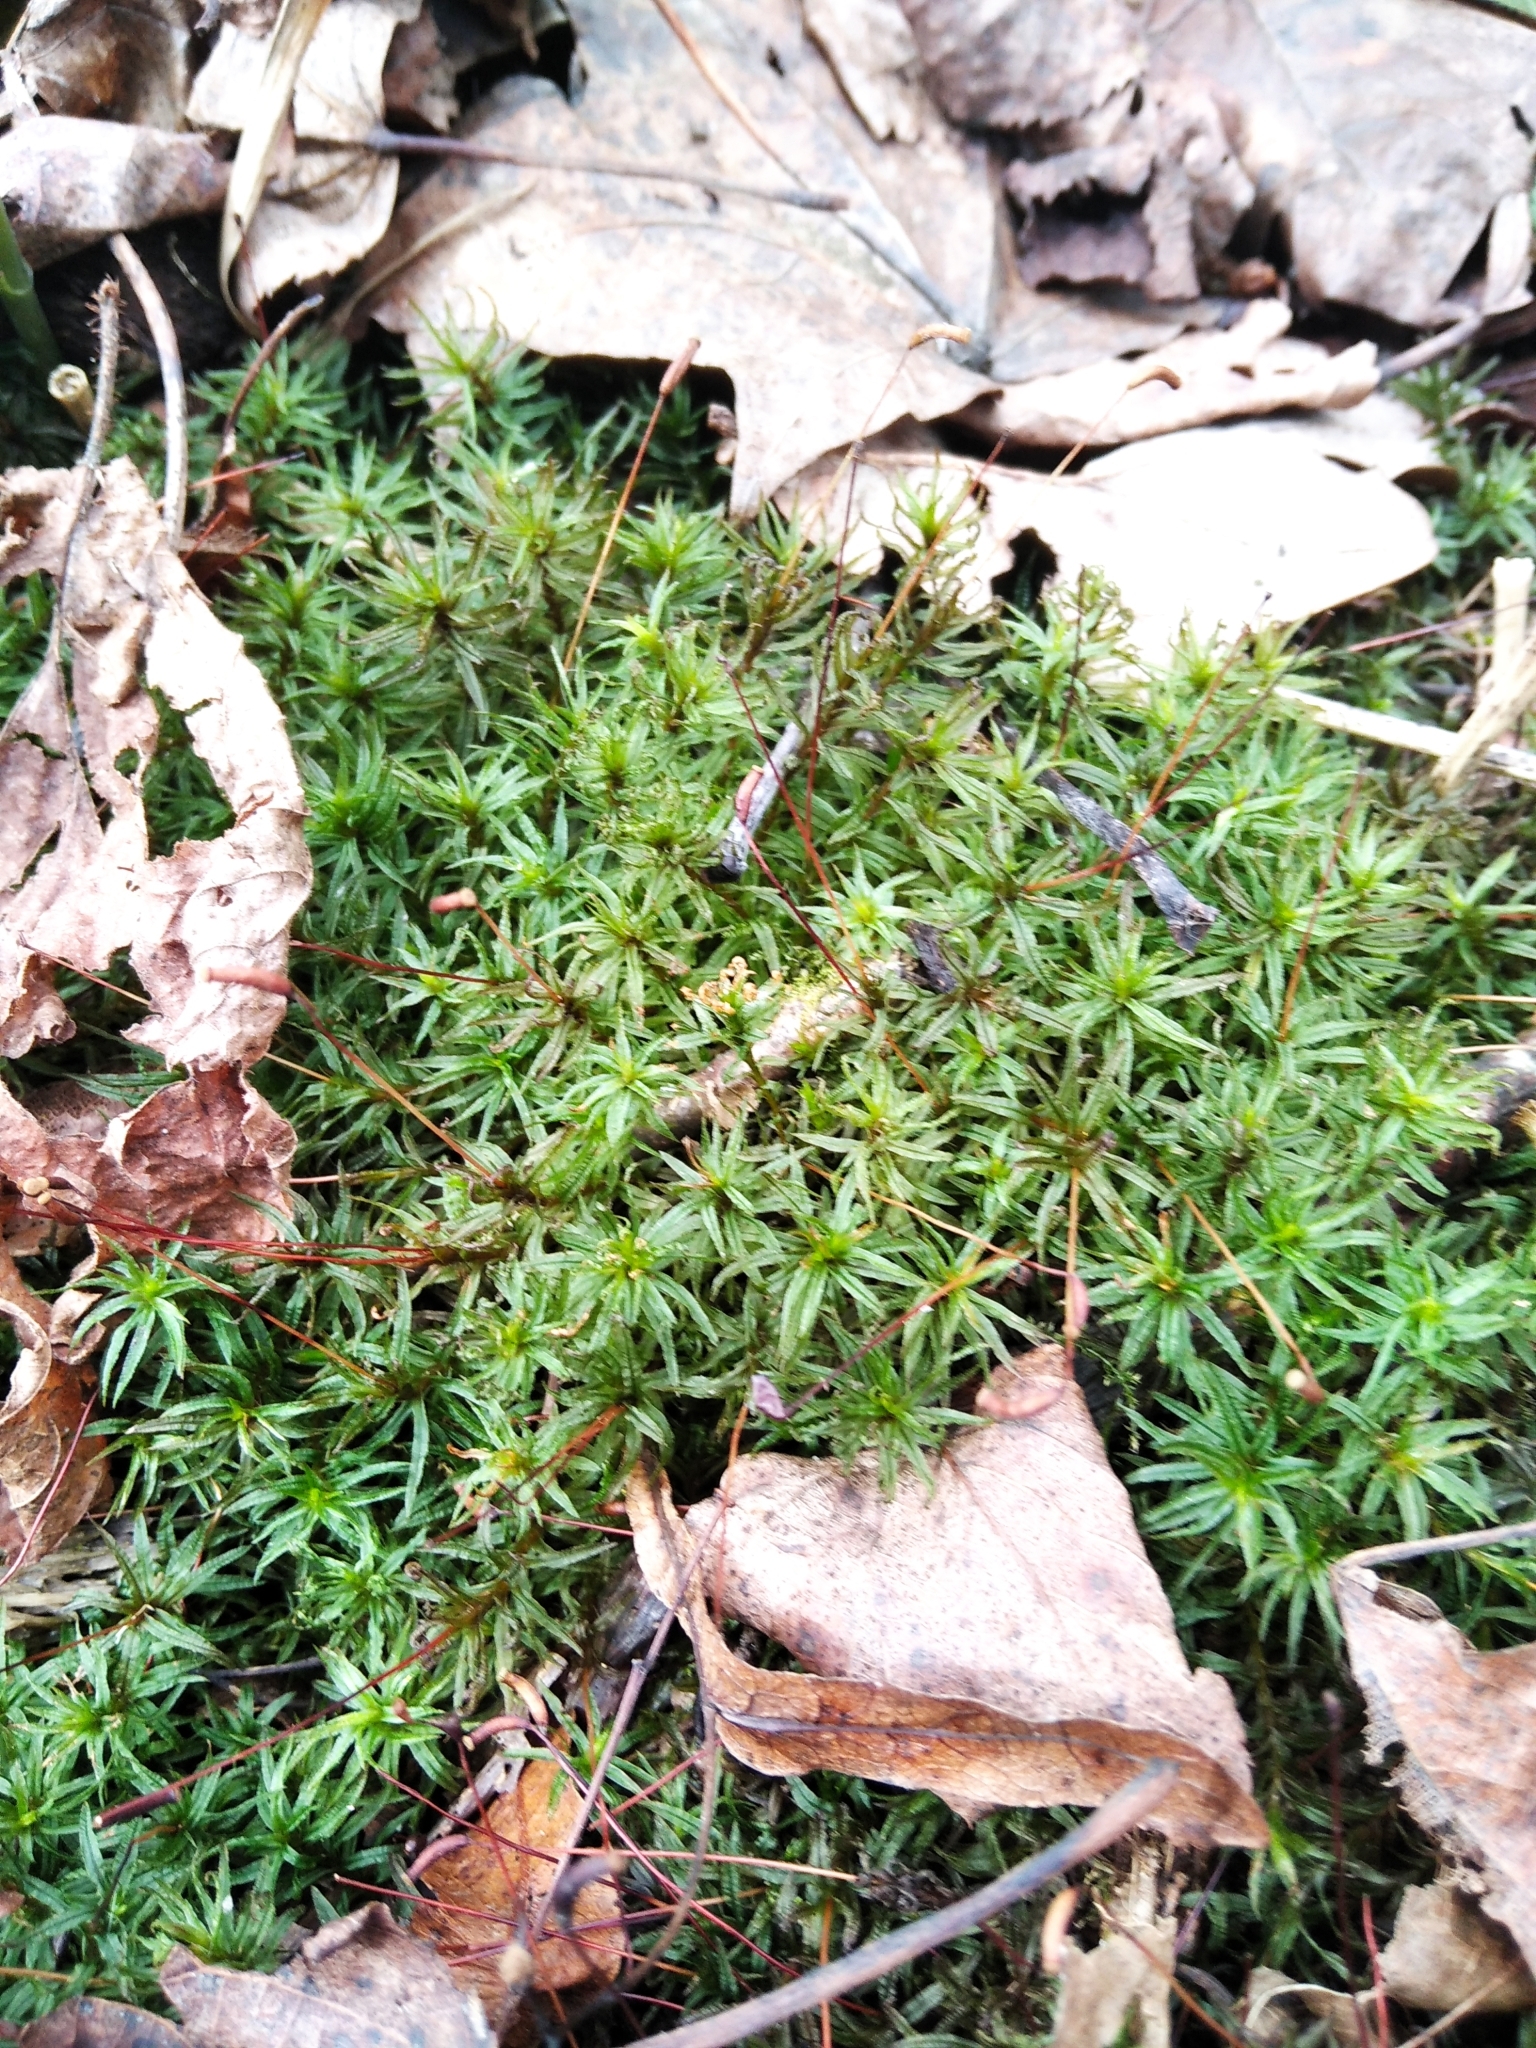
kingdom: Plantae
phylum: Bryophyta
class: Polytrichopsida
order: Polytrichales
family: Polytrichaceae
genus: Atrichum
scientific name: Atrichum undulatum
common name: Common smoothcap
